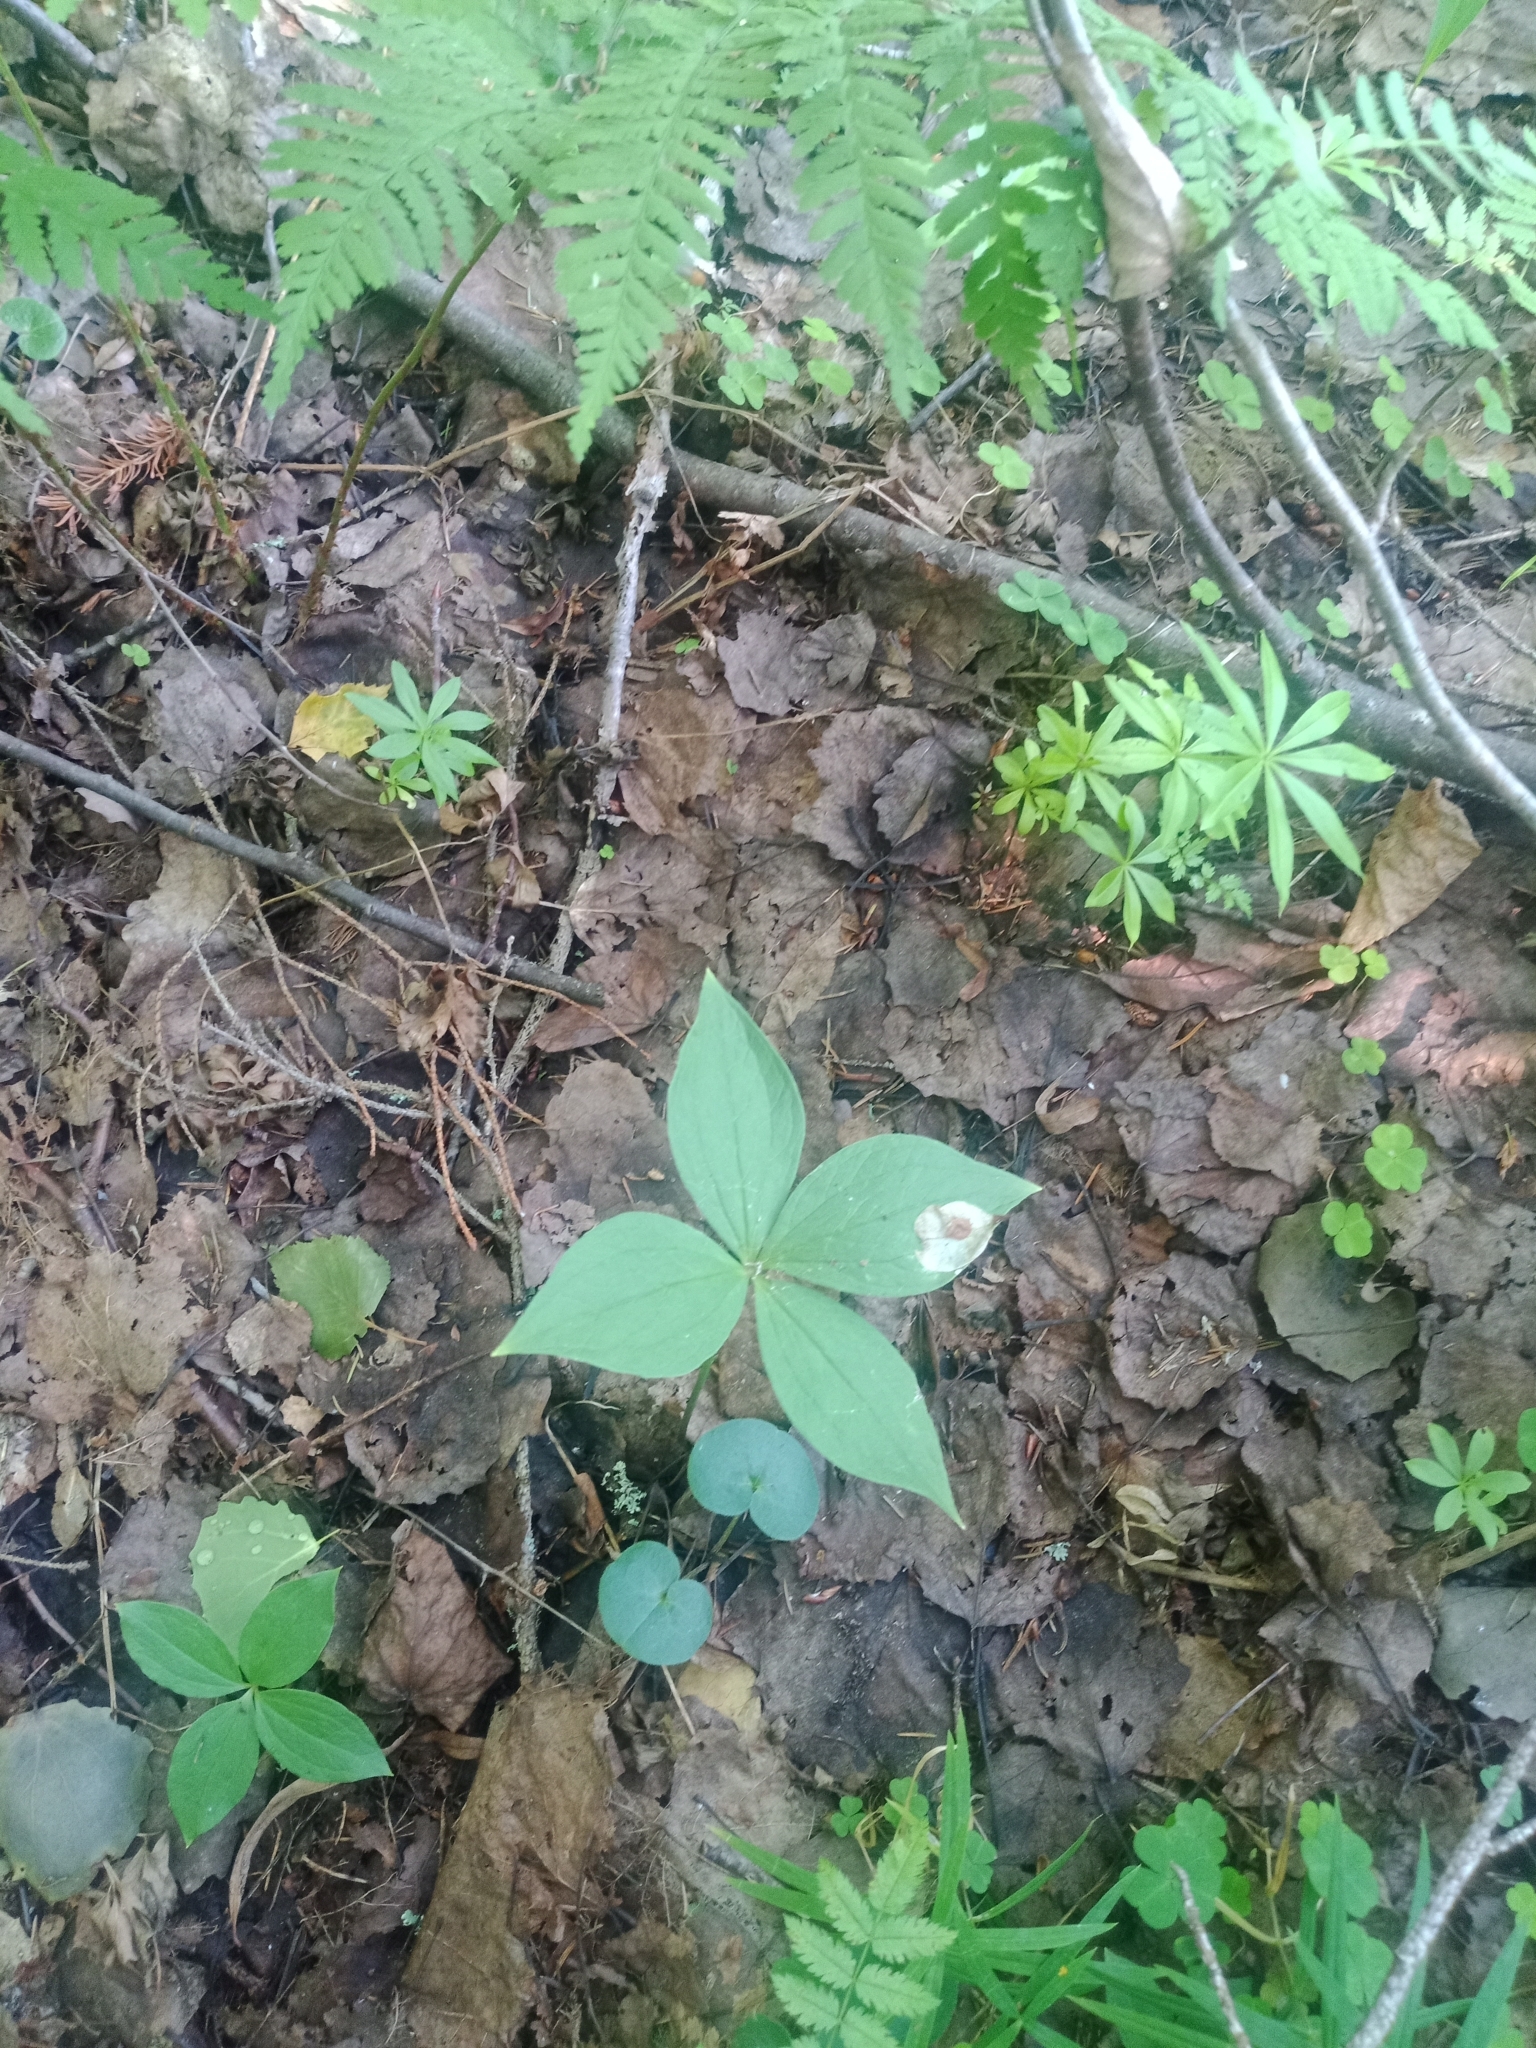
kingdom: Plantae
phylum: Tracheophyta
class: Liliopsida
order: Liliales
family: Melanthiaceae
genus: Paris
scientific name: Paris quadrifolia
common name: Herb-paris
